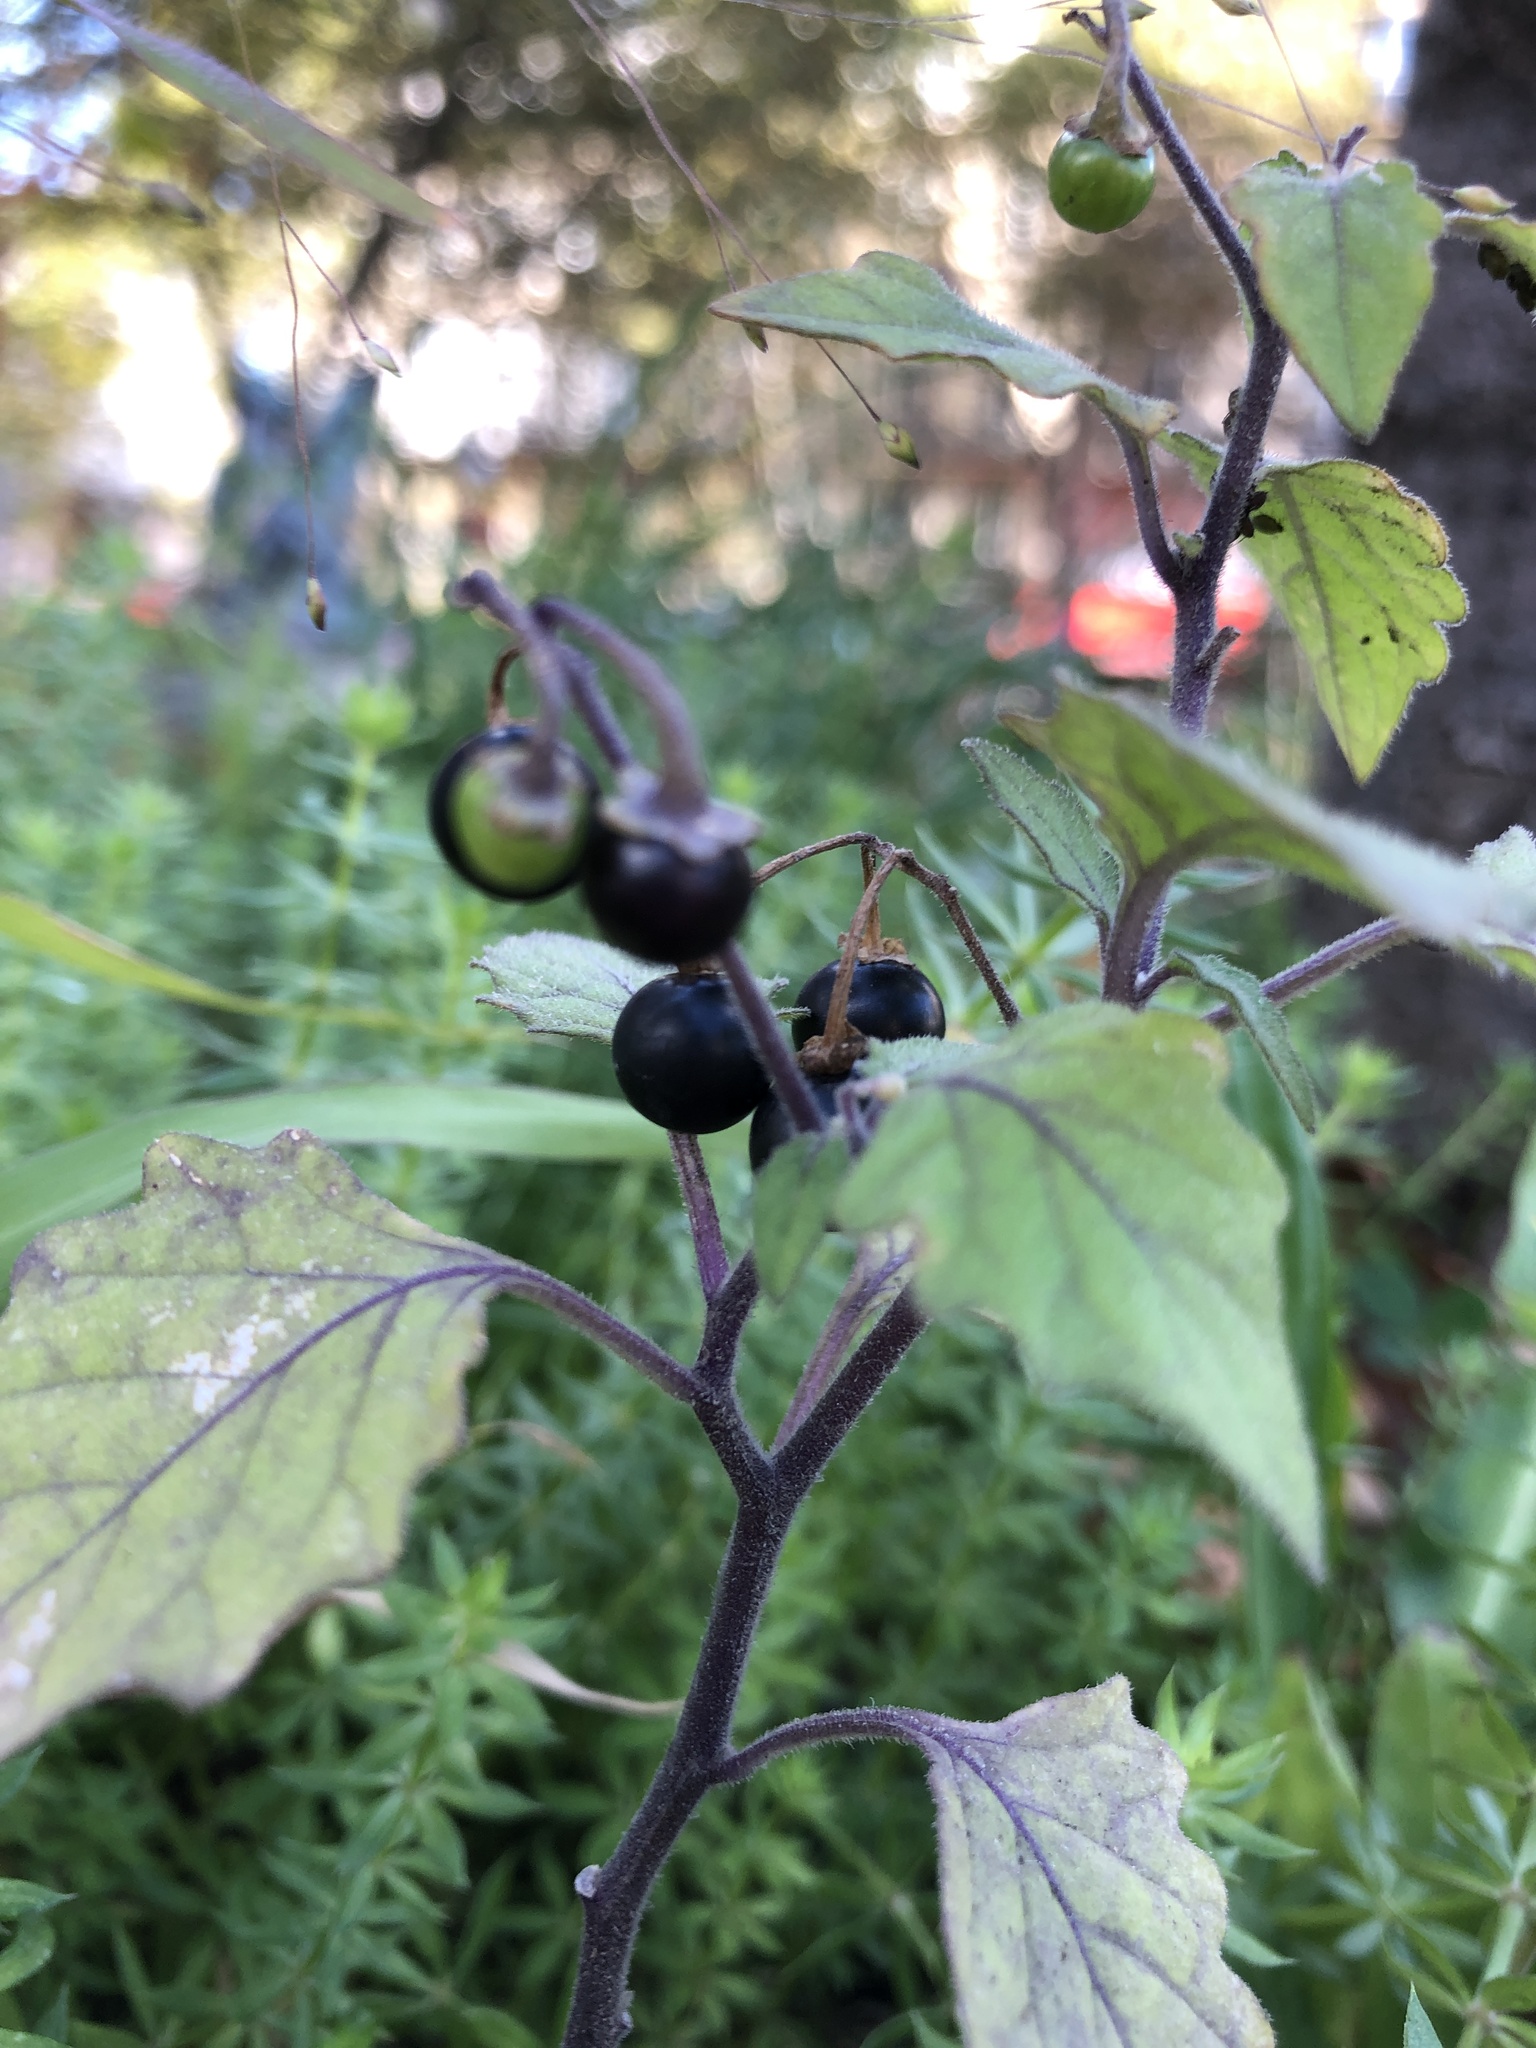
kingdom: Plantae
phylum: Tracheophyta
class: Magnoliopsida
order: Solanales
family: Solanaceae
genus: Solanum
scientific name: Solanum nigrum
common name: Black nightshade
